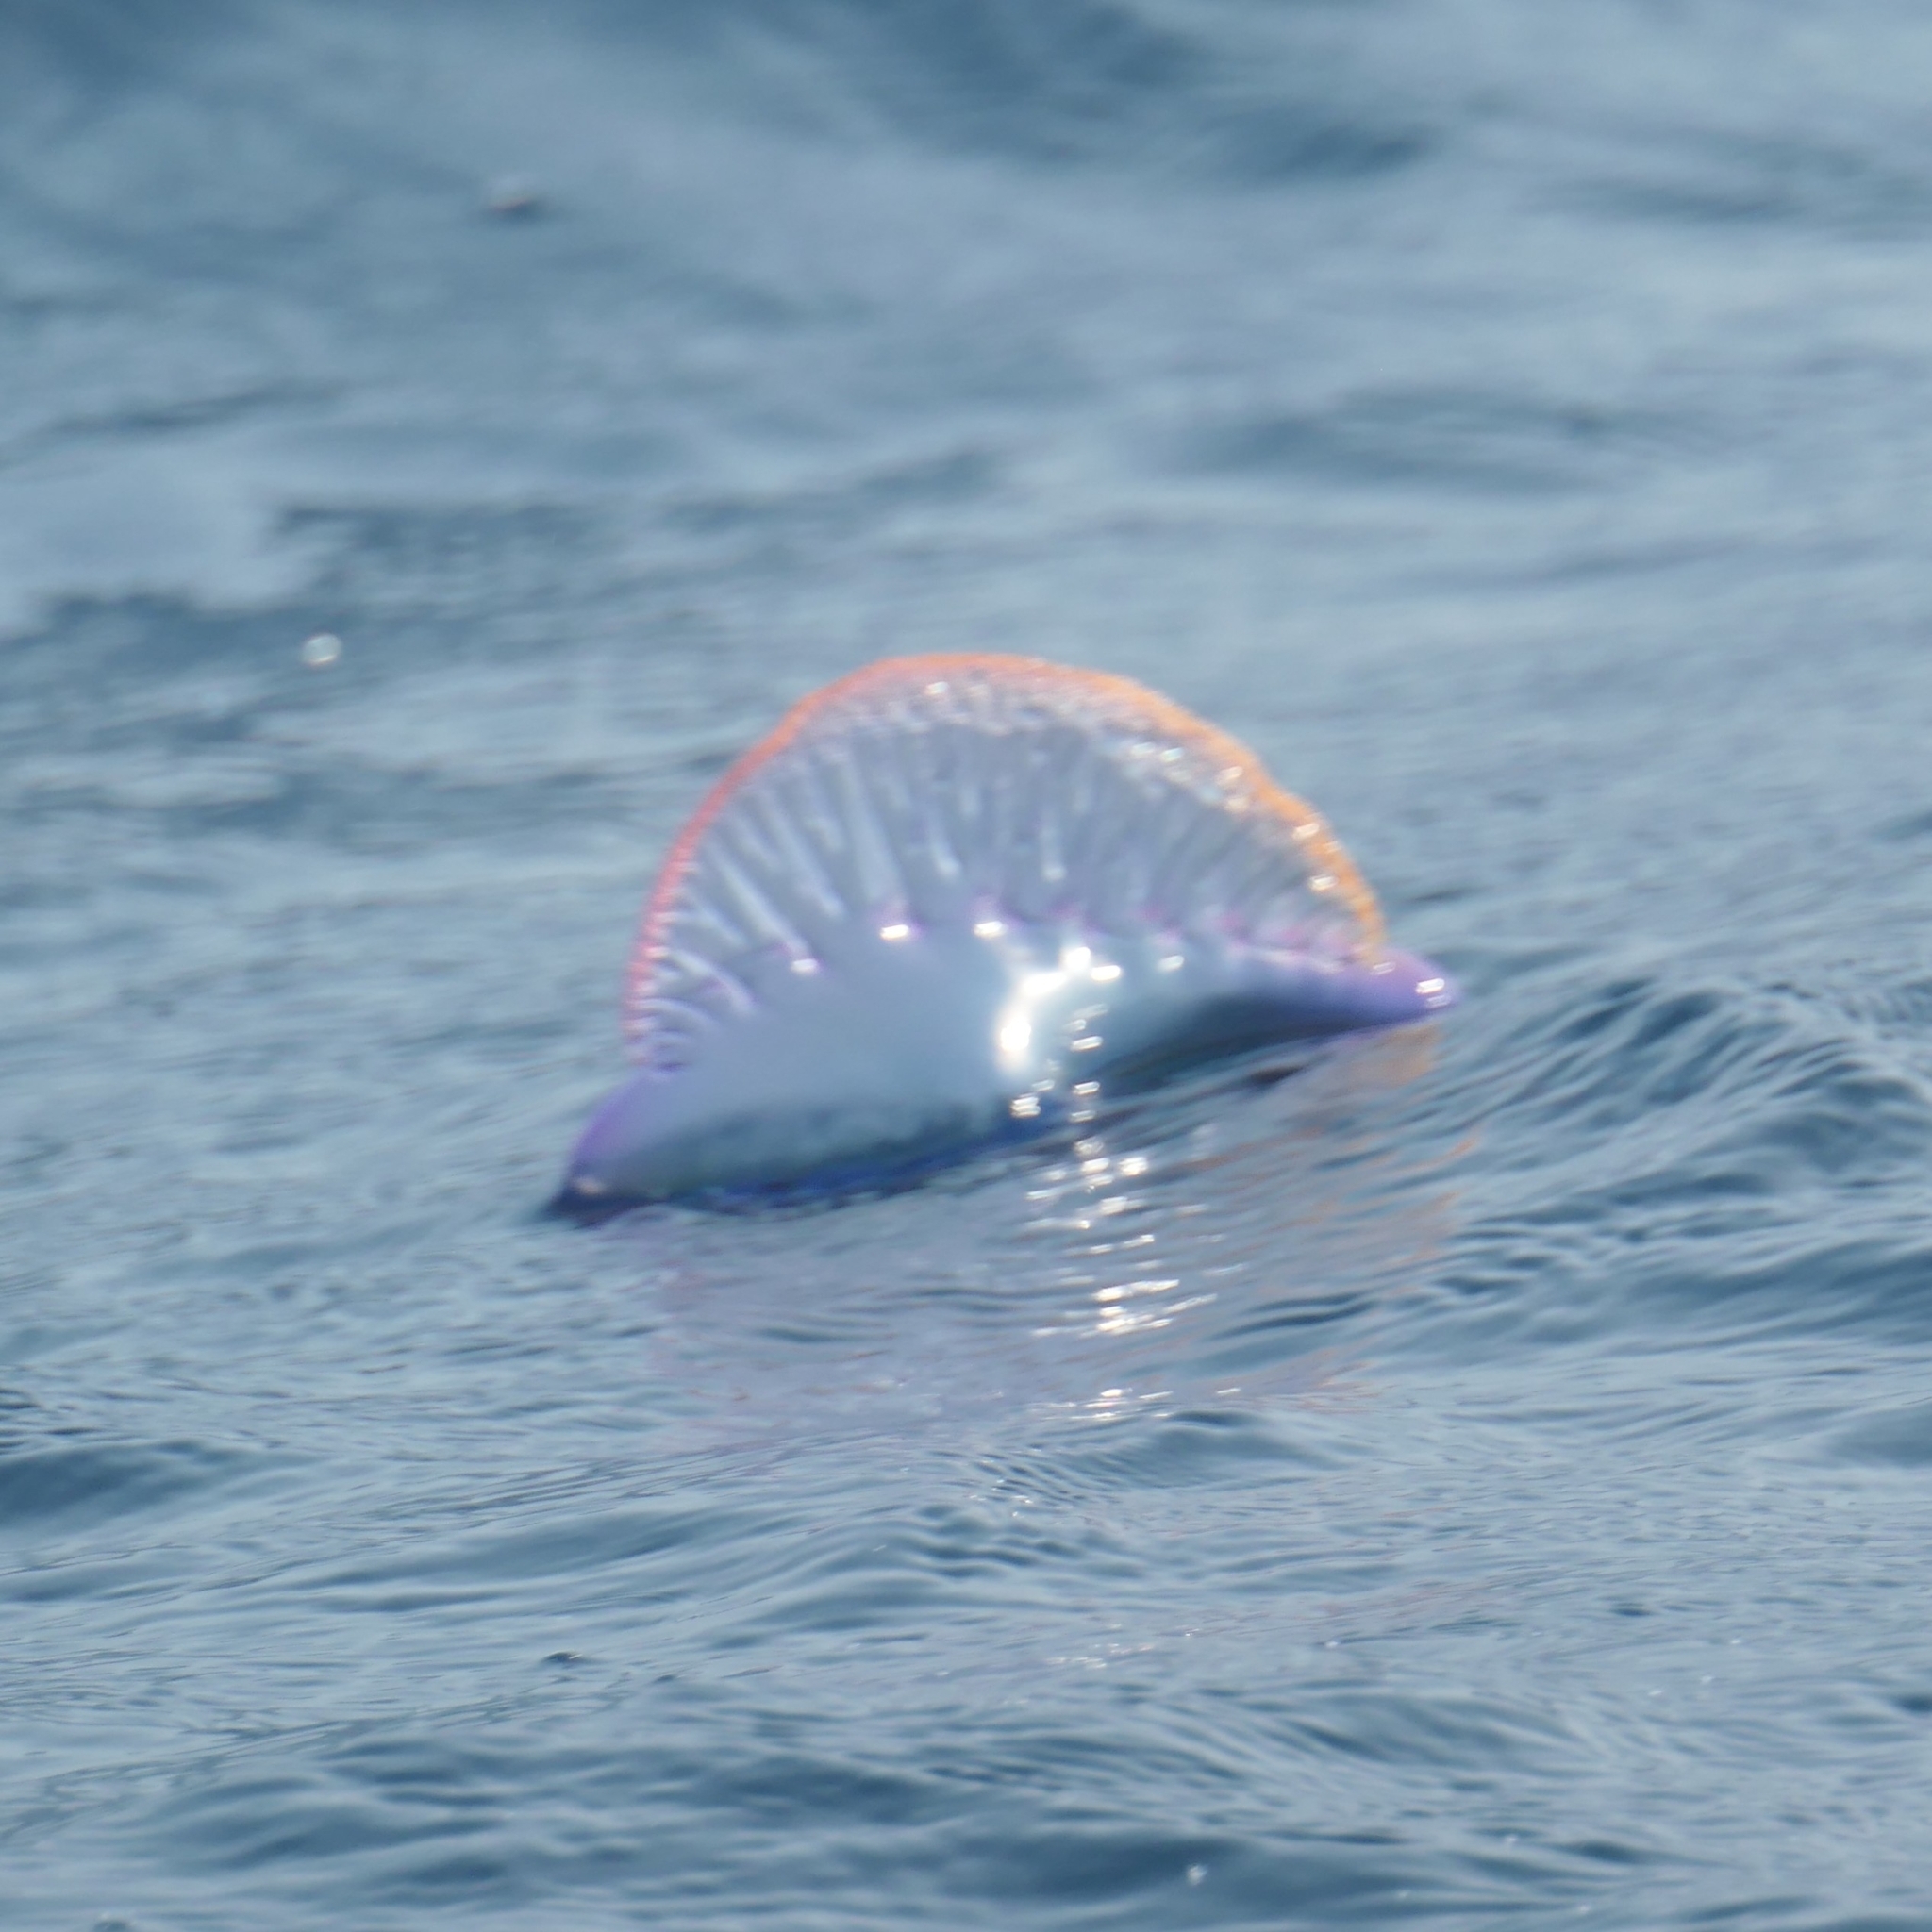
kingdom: Animalia
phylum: Cnidaria
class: Hydrozoa
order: Siphonophorae
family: Physaliidae
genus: Physalia
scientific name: Physalia physalis
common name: Portuguese man-of-war
